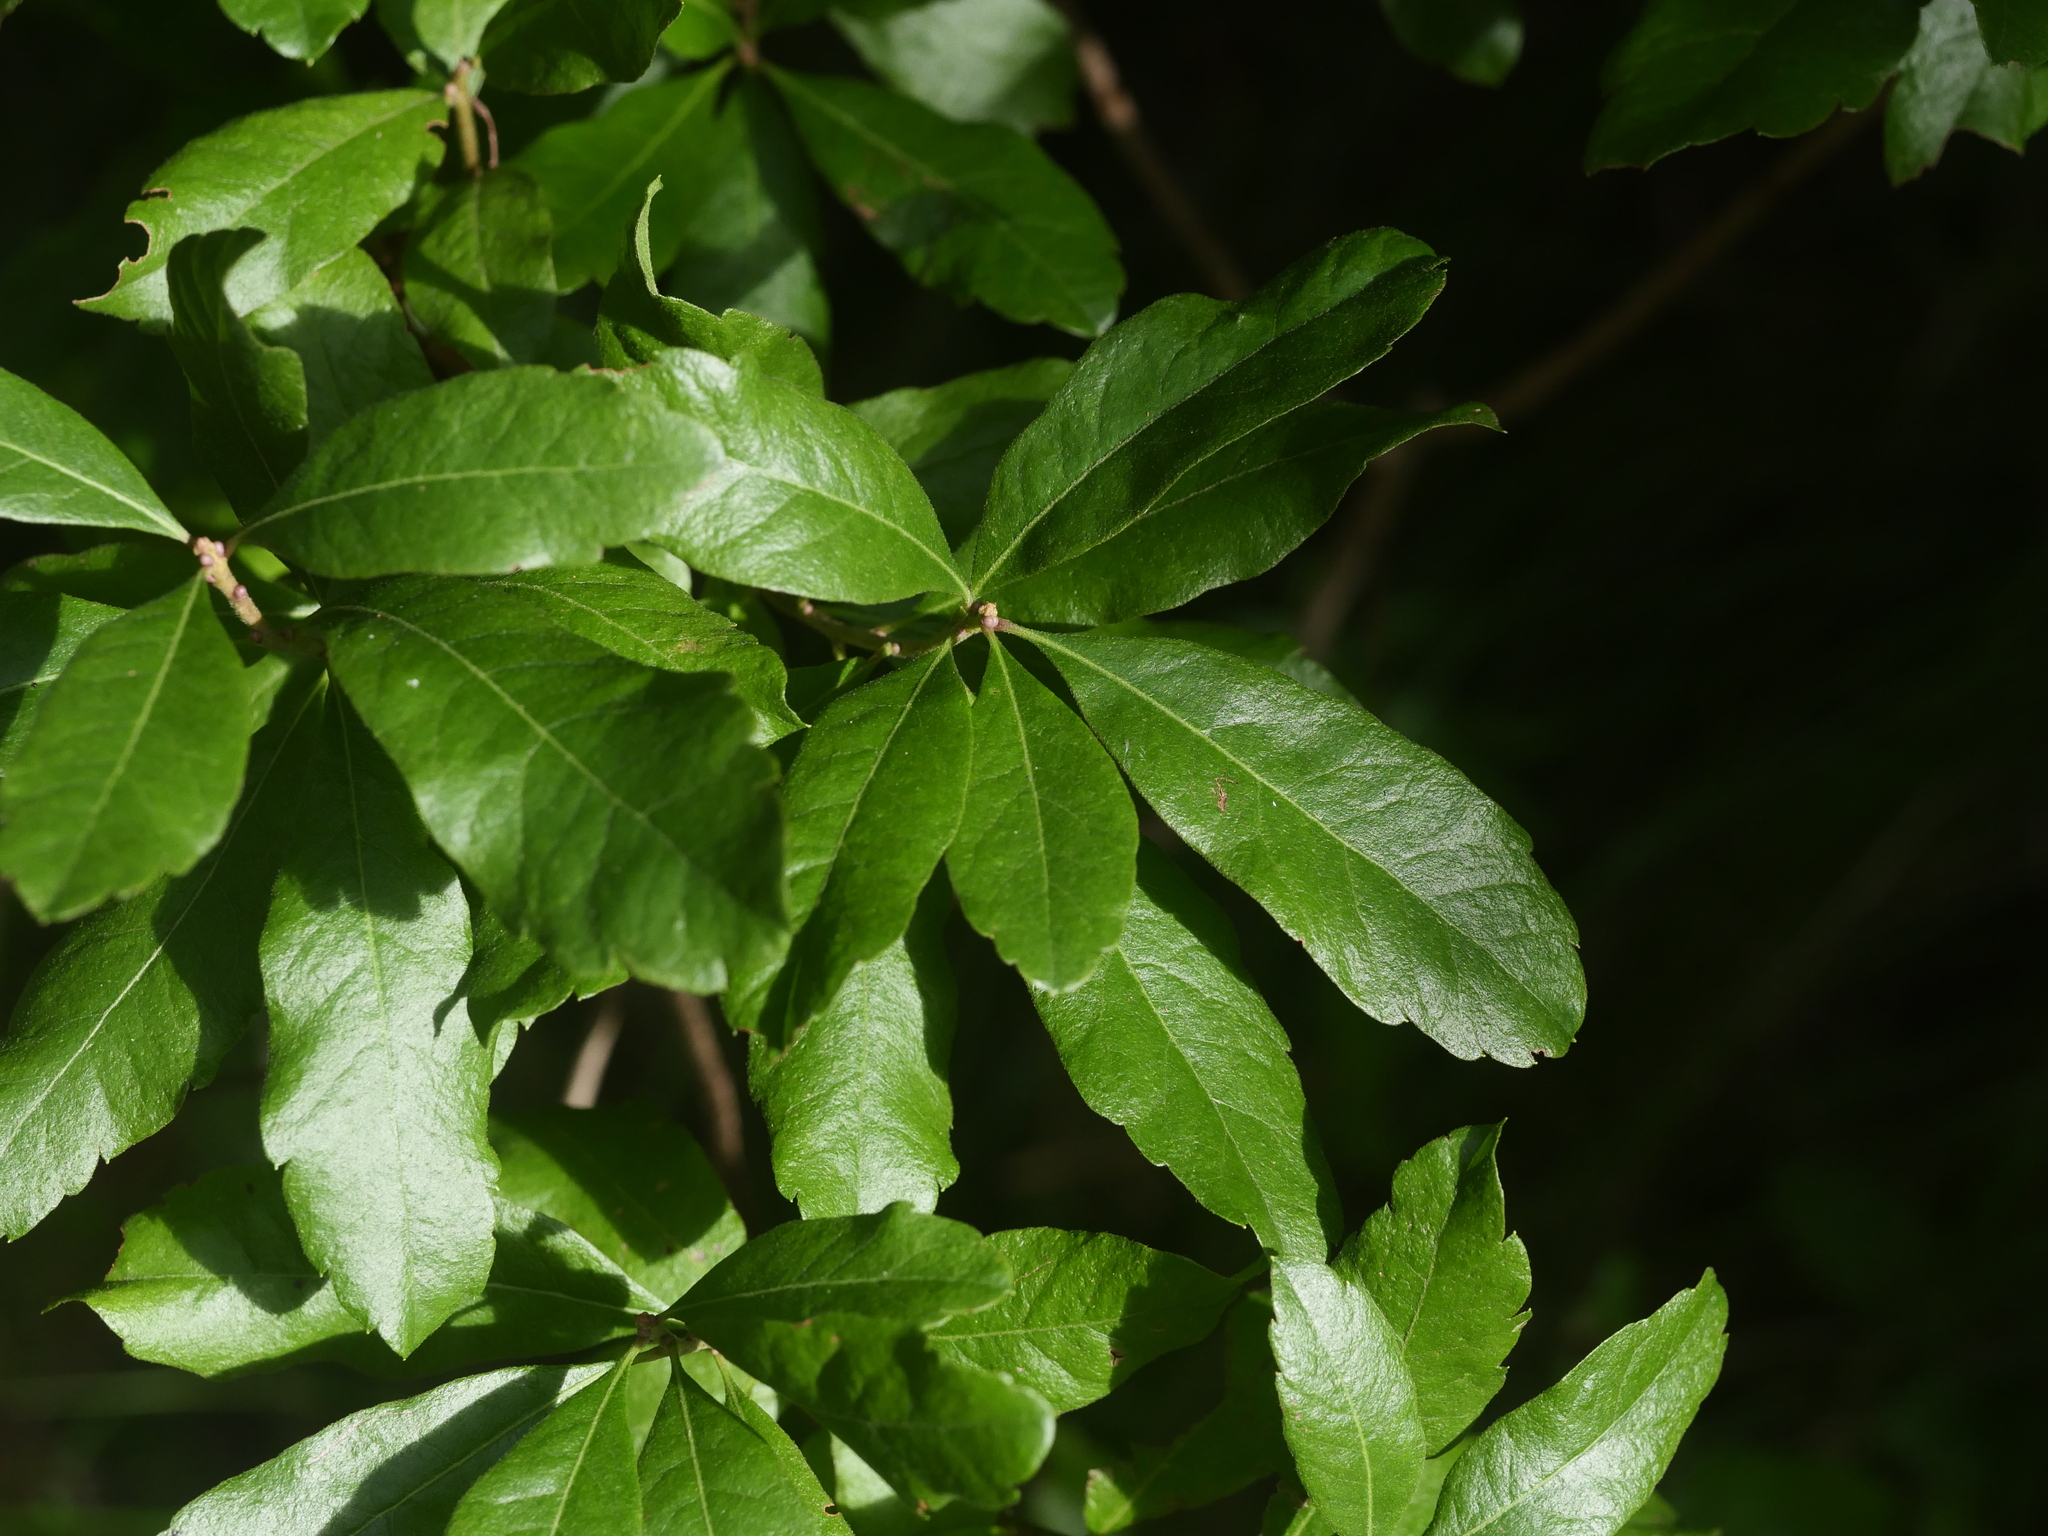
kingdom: Plantae
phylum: Tracheophyta
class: Magnoliopsida
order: Fagales
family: Myricaceae
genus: Morella
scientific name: Morella pensylvanica
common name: Northern bayberry
